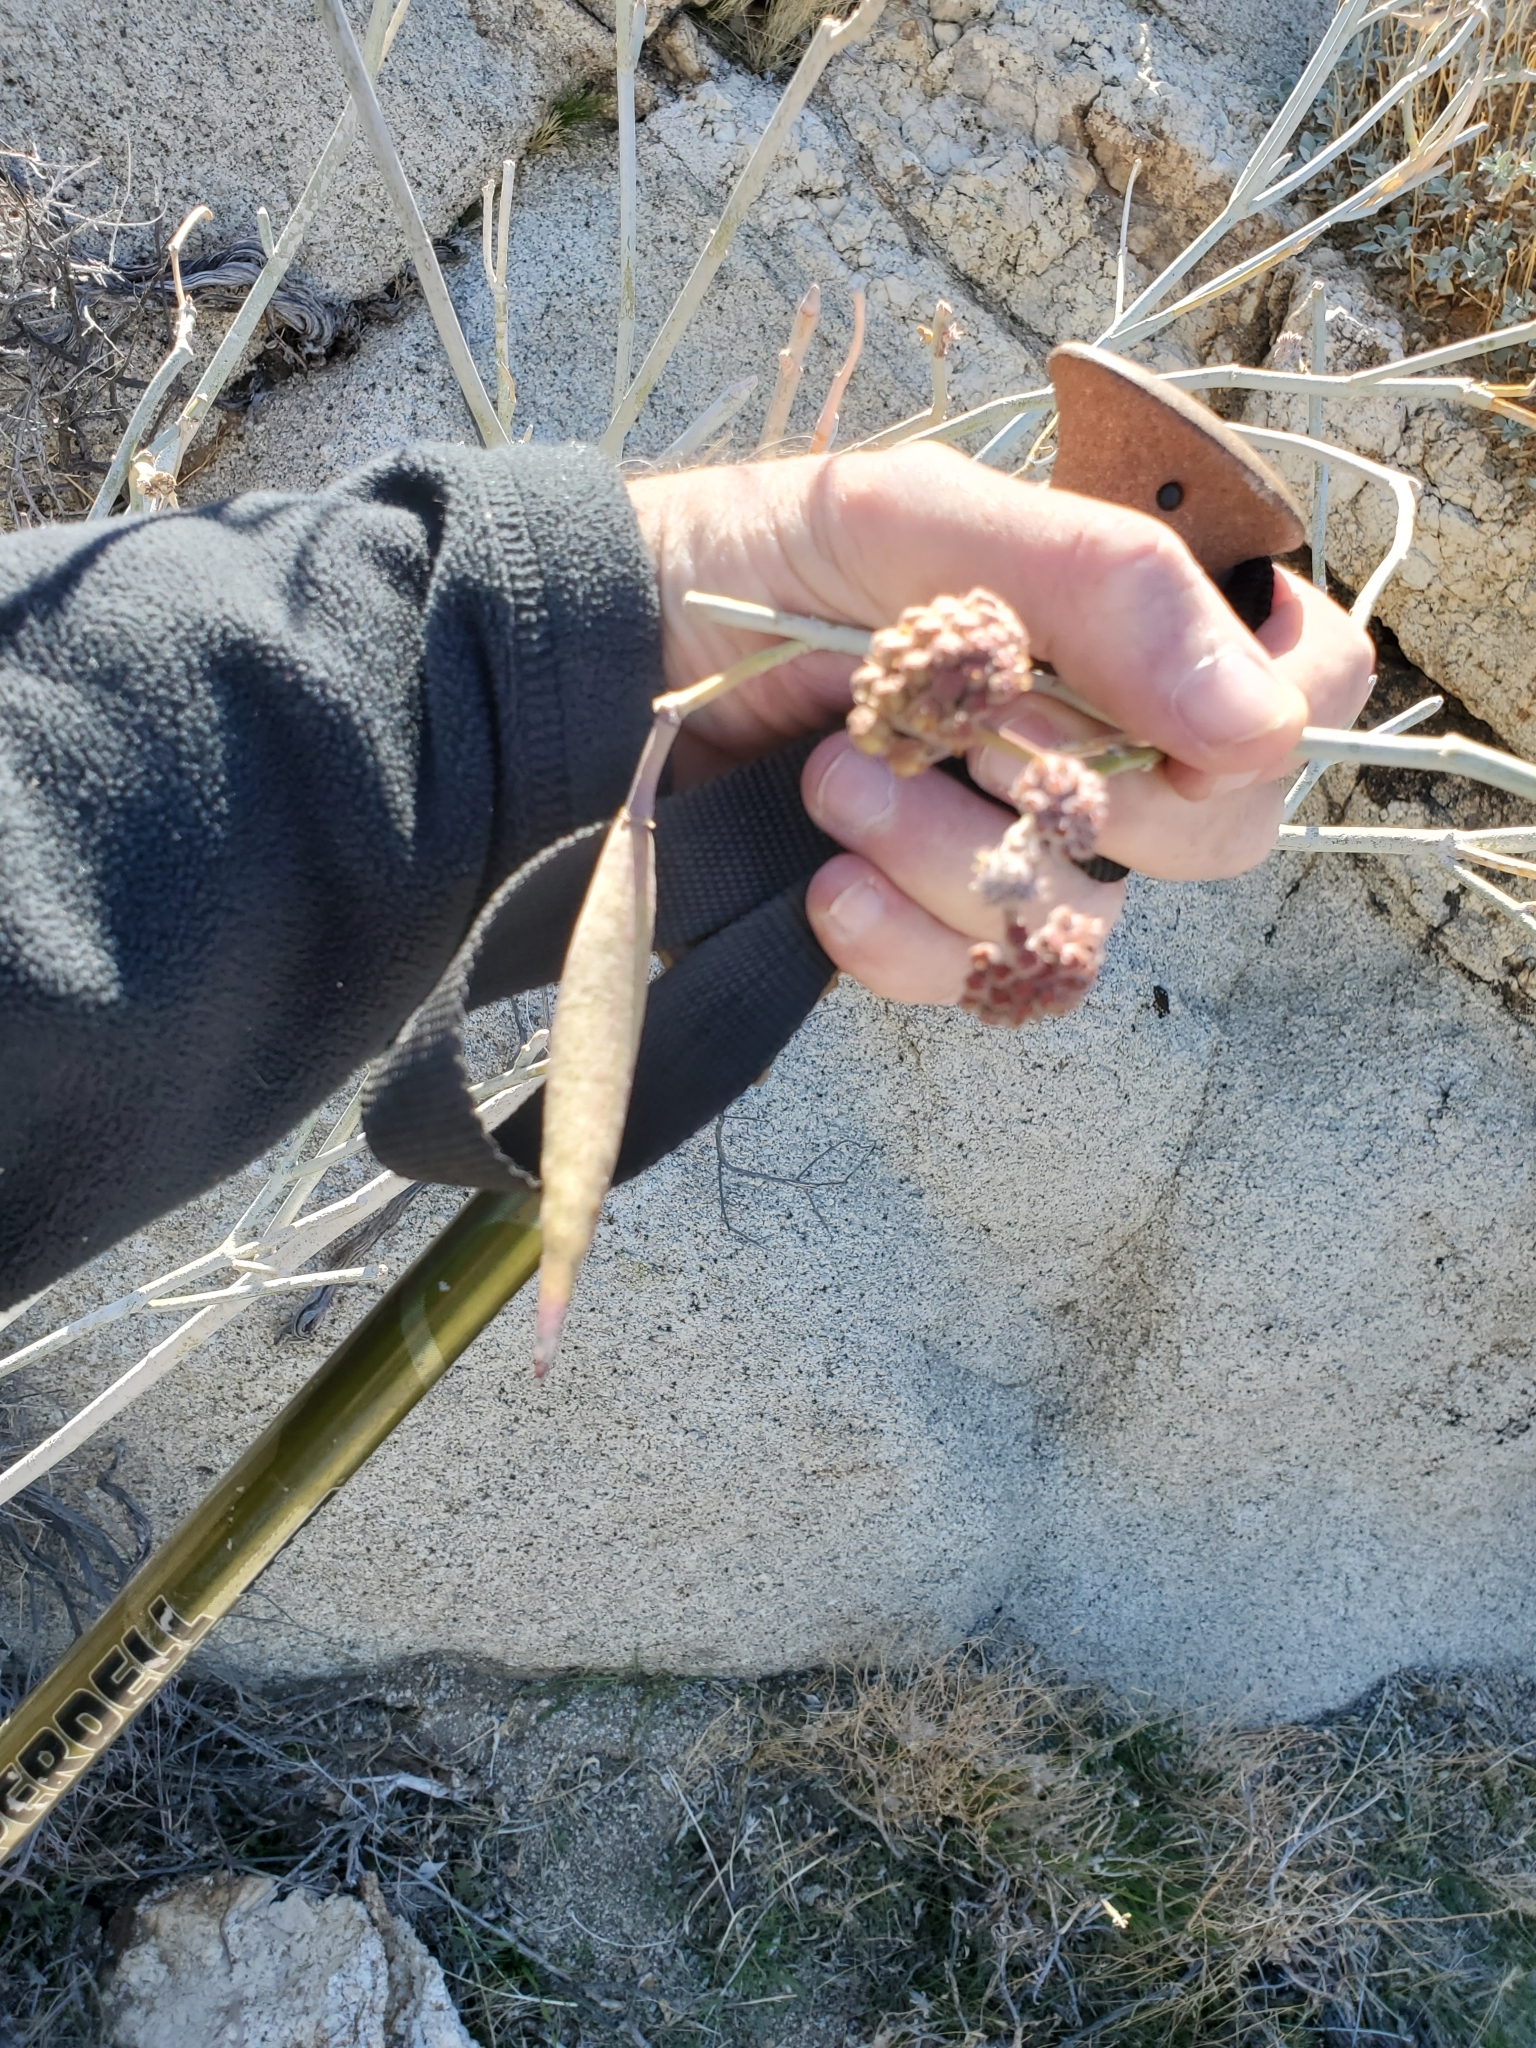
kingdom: Plantae
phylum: Tracheophyta
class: Magnoliopsida
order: Gentianales
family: Apocynaceae
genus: Asclepias
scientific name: Asclepias albicans
